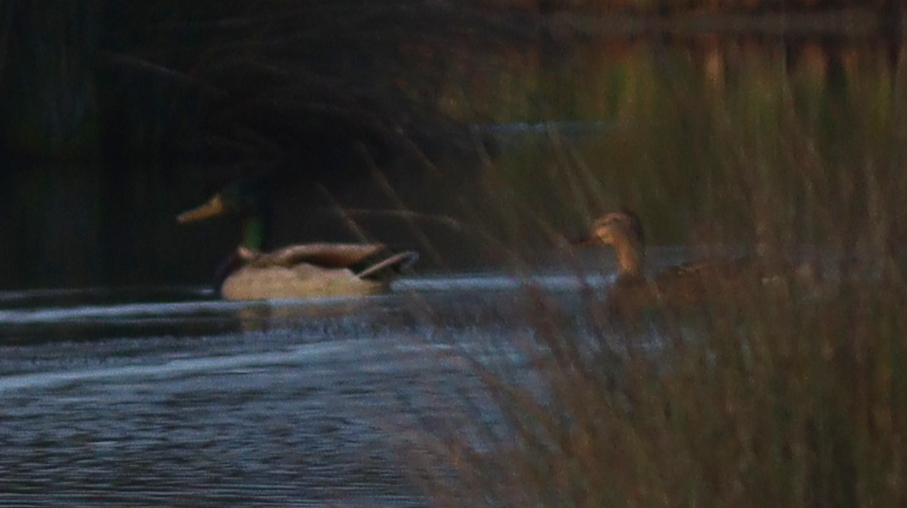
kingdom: Animalia
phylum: Chordata
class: Aves
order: Anseriformes
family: Anatidae
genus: Anas
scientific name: Anas platyrhynchos
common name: Mallard
